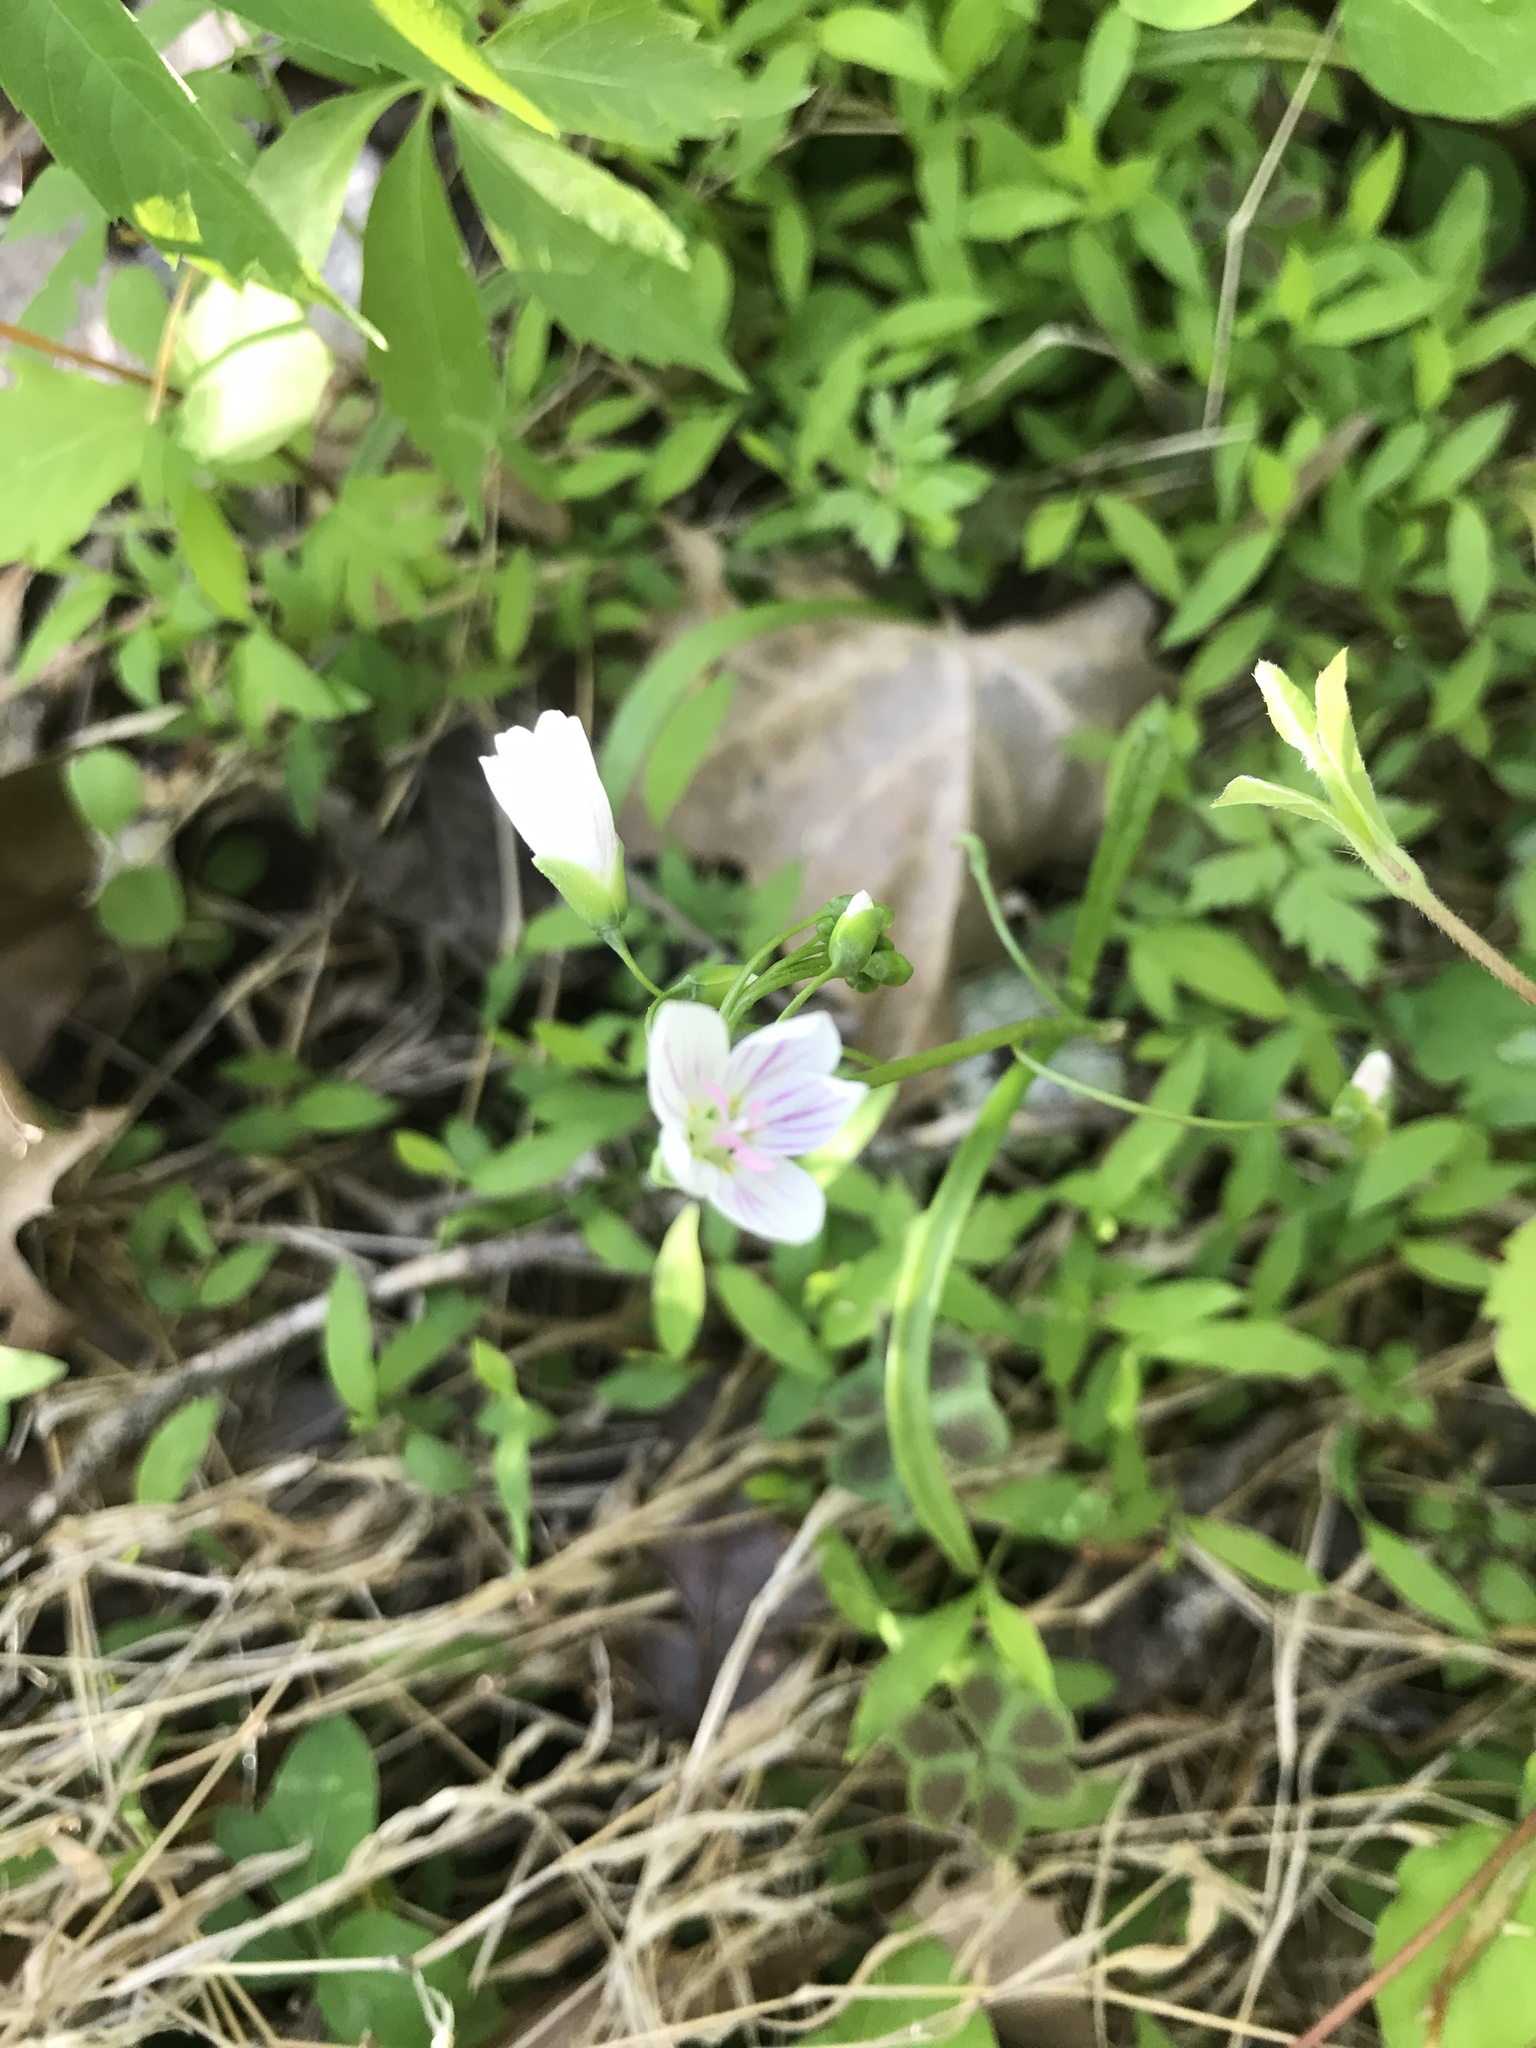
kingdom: Plantae
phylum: Tracheophyta
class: Magnoliopsida
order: Caryophyllales
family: Montiaceae
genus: Claytonia
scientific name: Claytonia virginica
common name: Virginia springbeauty
